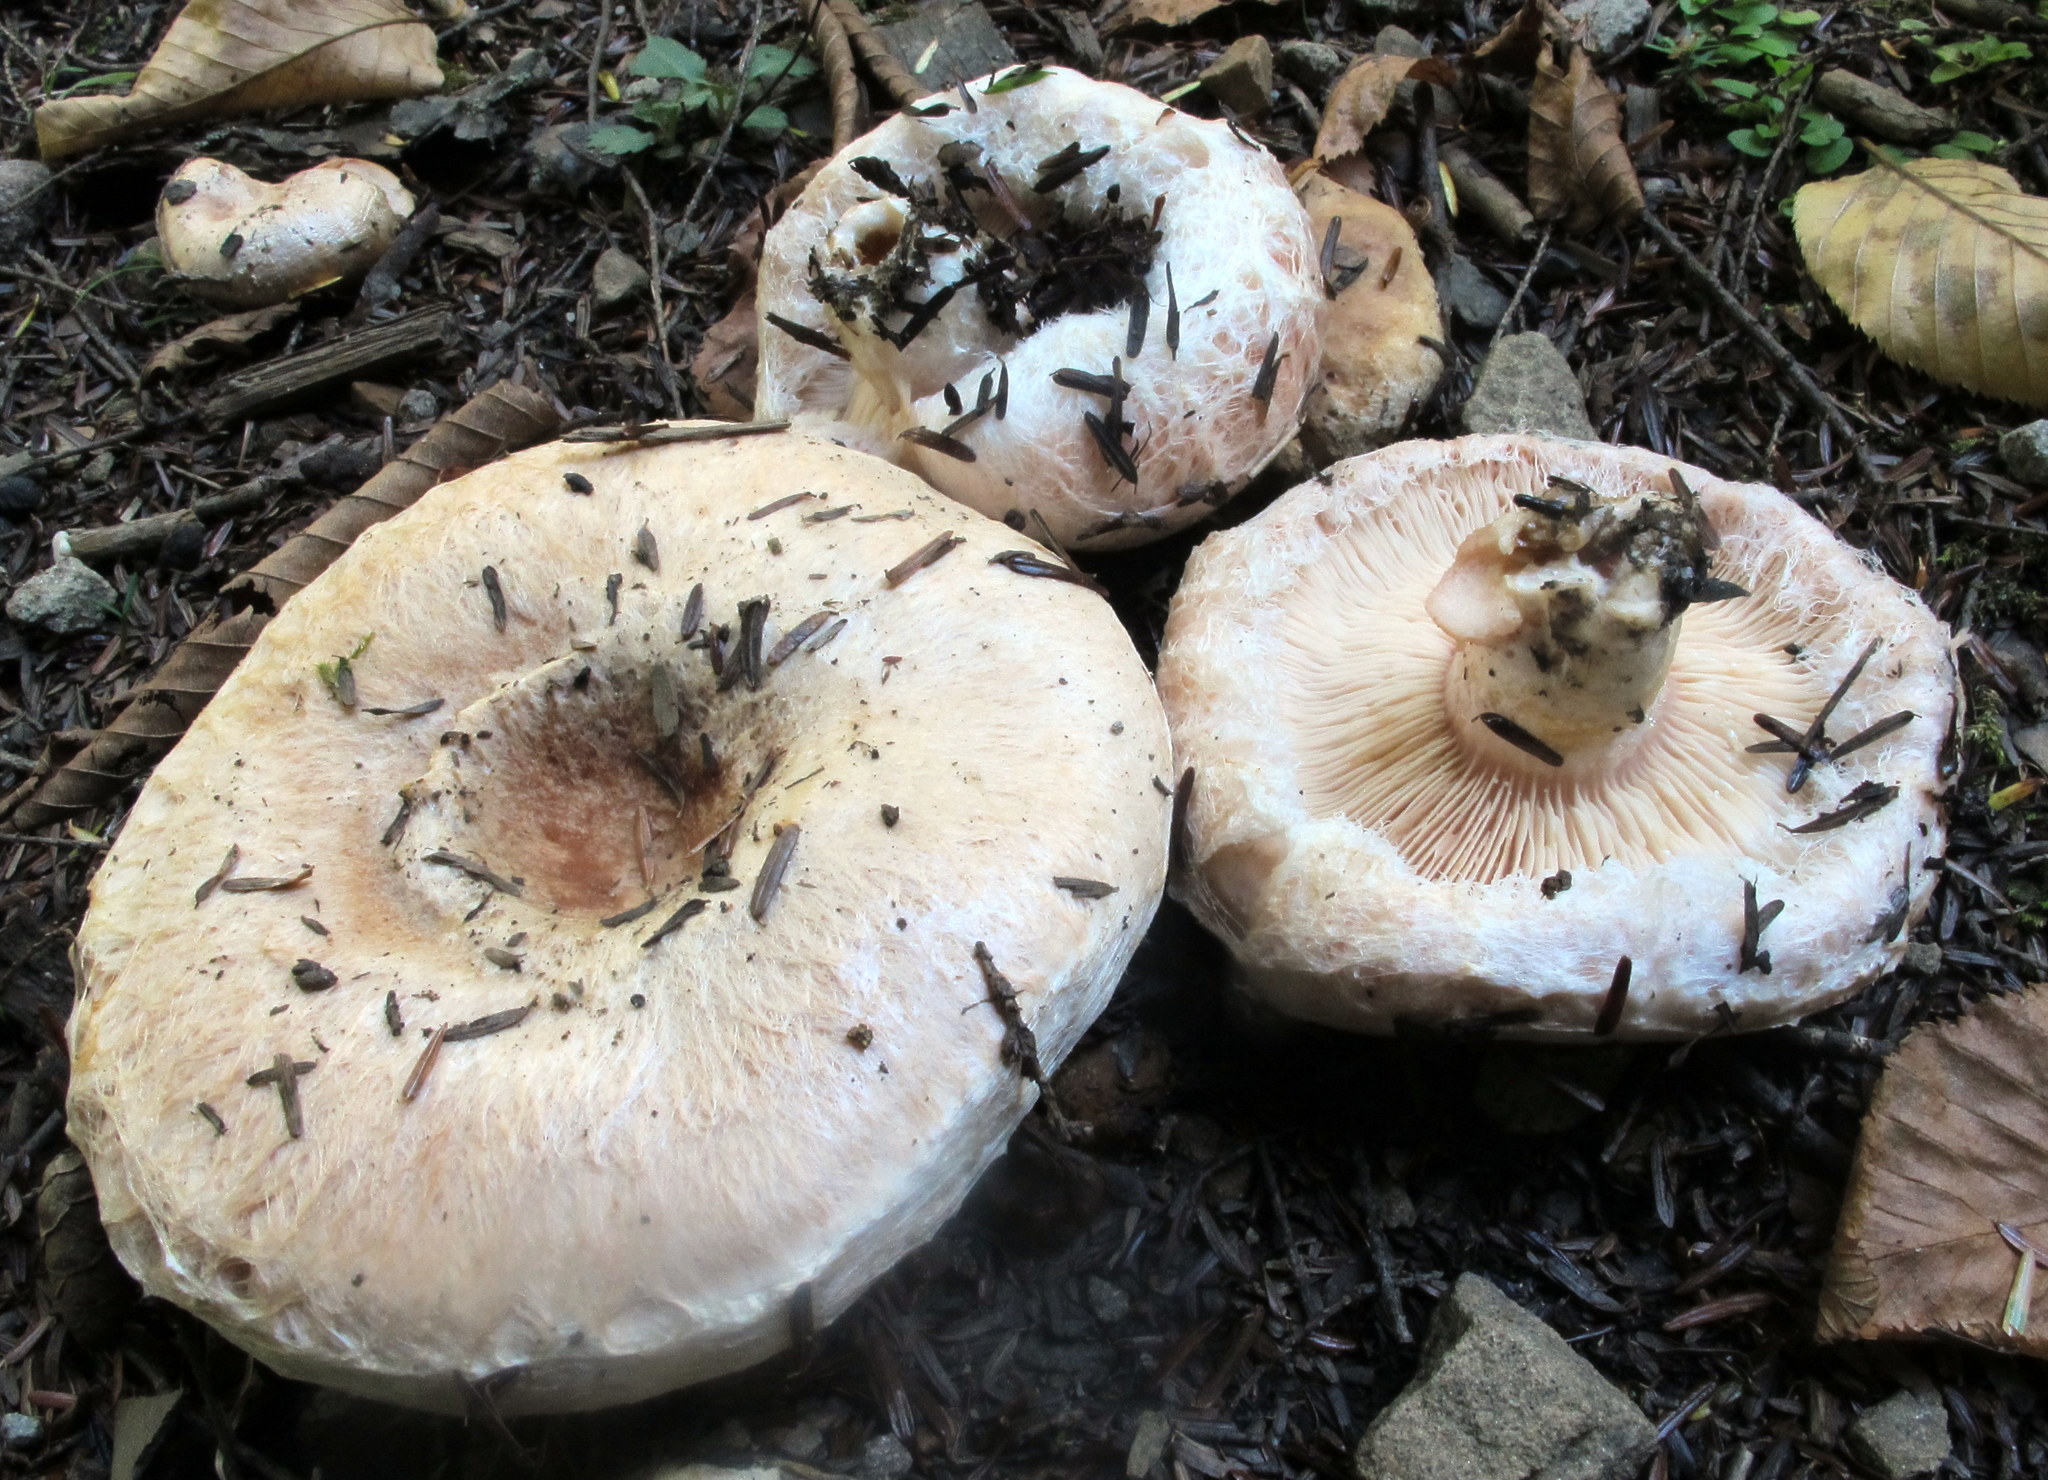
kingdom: Fungi
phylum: Basidiomycota
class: Agaricomycetes
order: Russulales
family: Russulaceae
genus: Lactarius
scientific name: Lactarius pubescens
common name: Bearded milkcap
